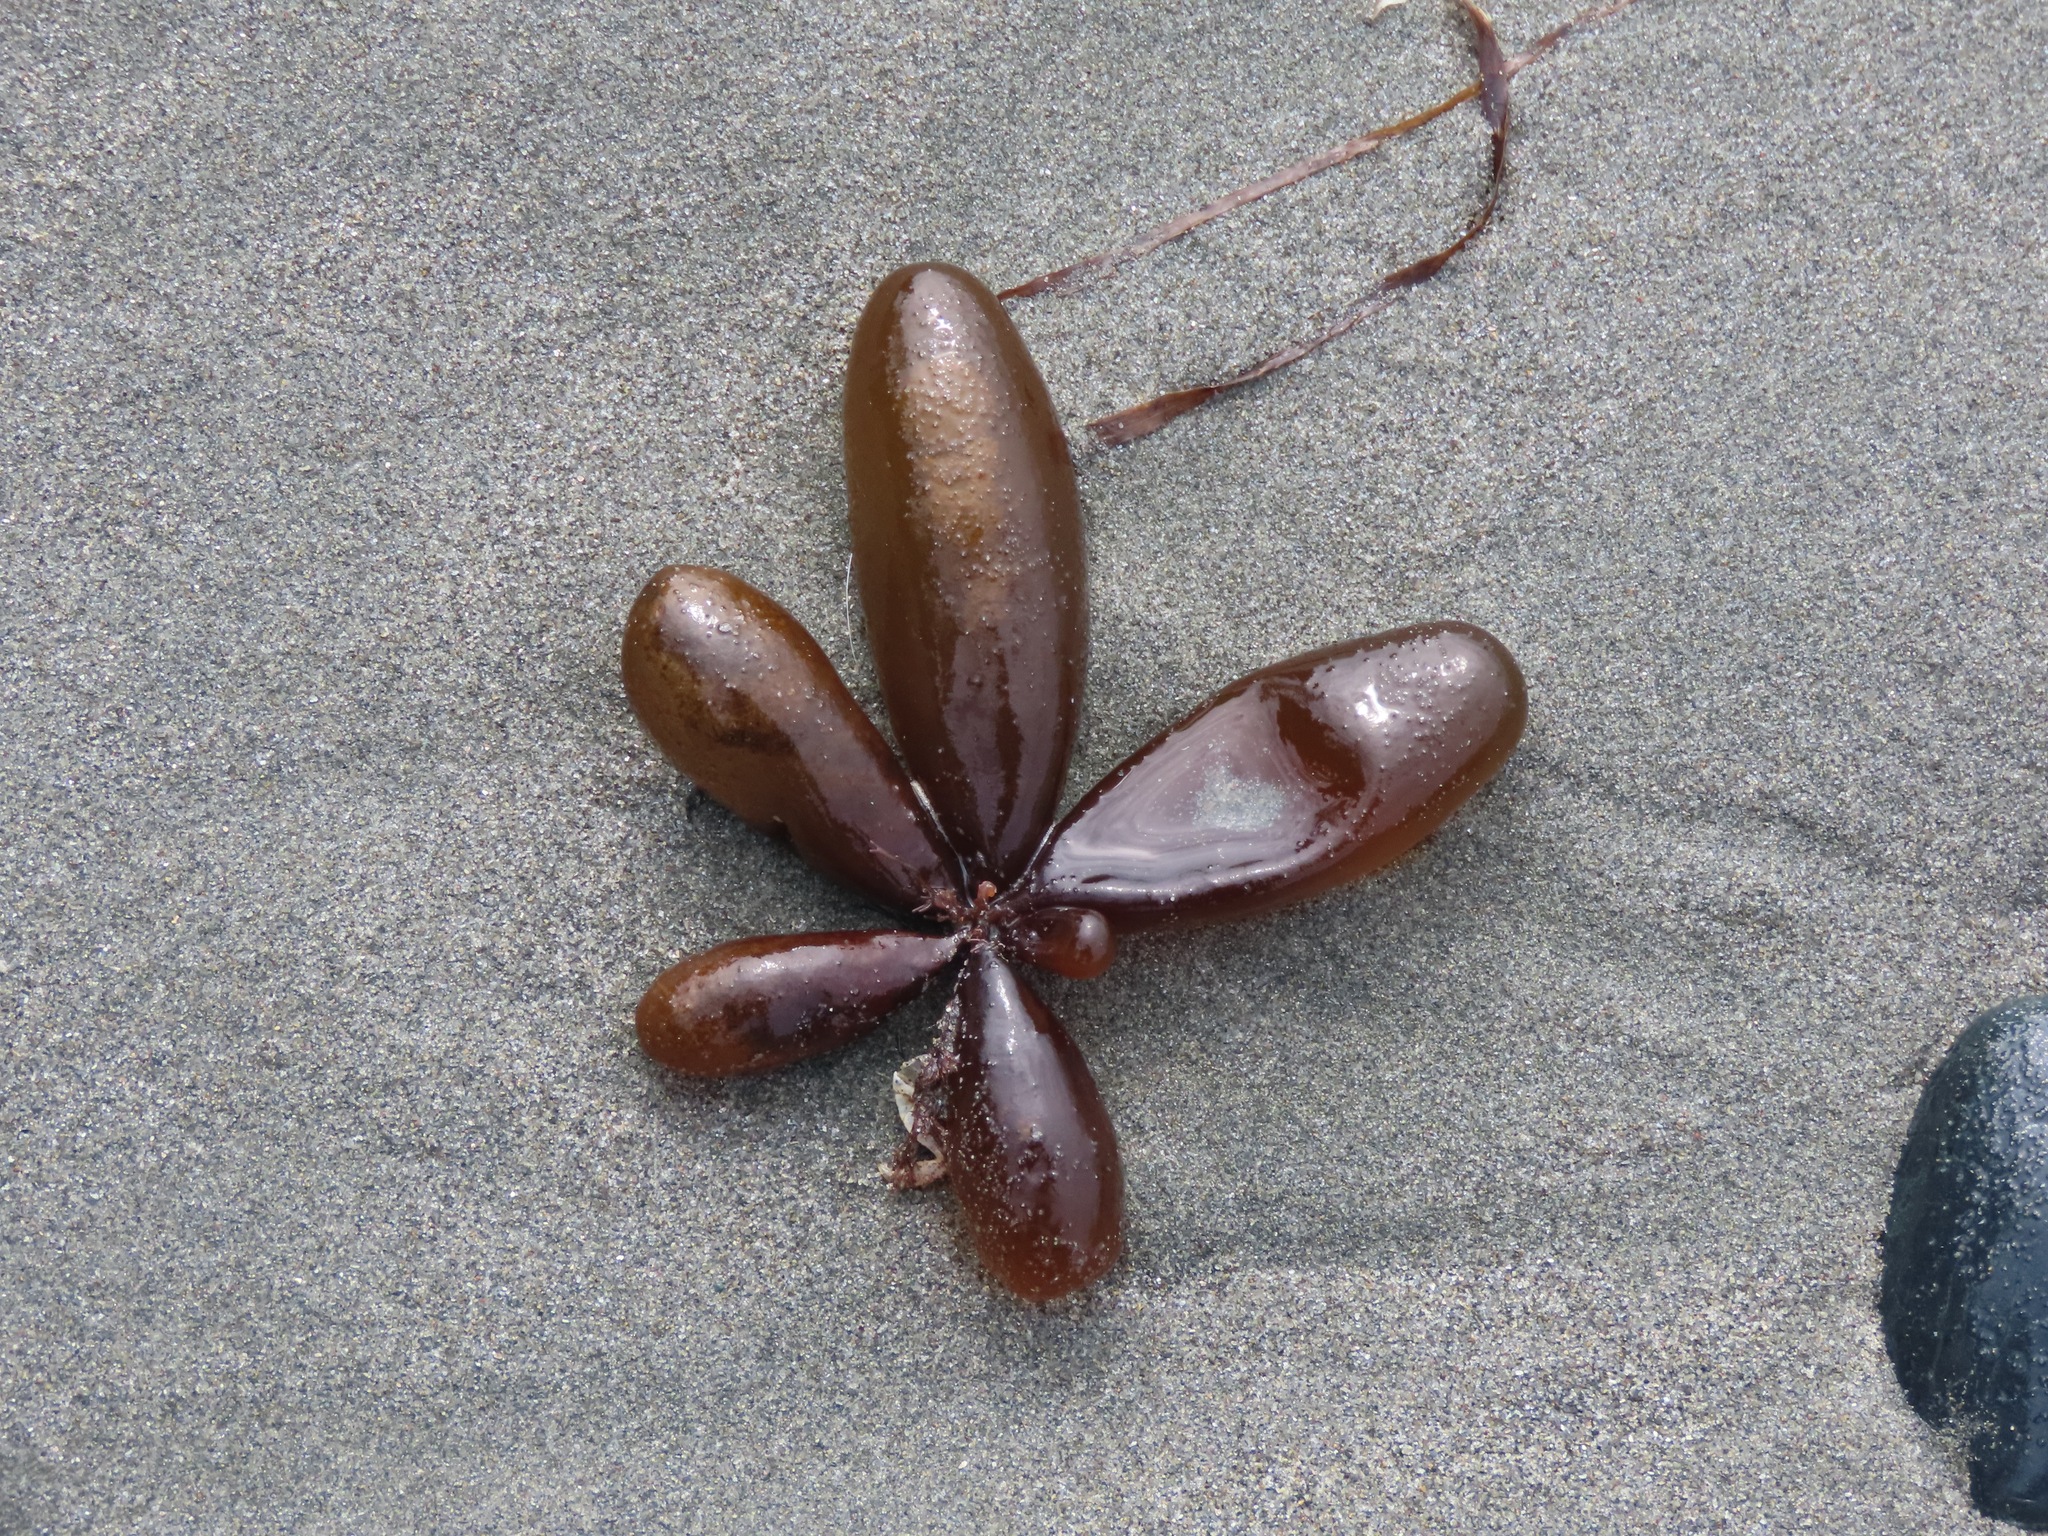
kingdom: Plantae
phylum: Rhodophyta
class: Florideophyceae
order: Palmariales
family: Palmariaceae
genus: Halosaccion
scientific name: Halosaccion glandiforme
